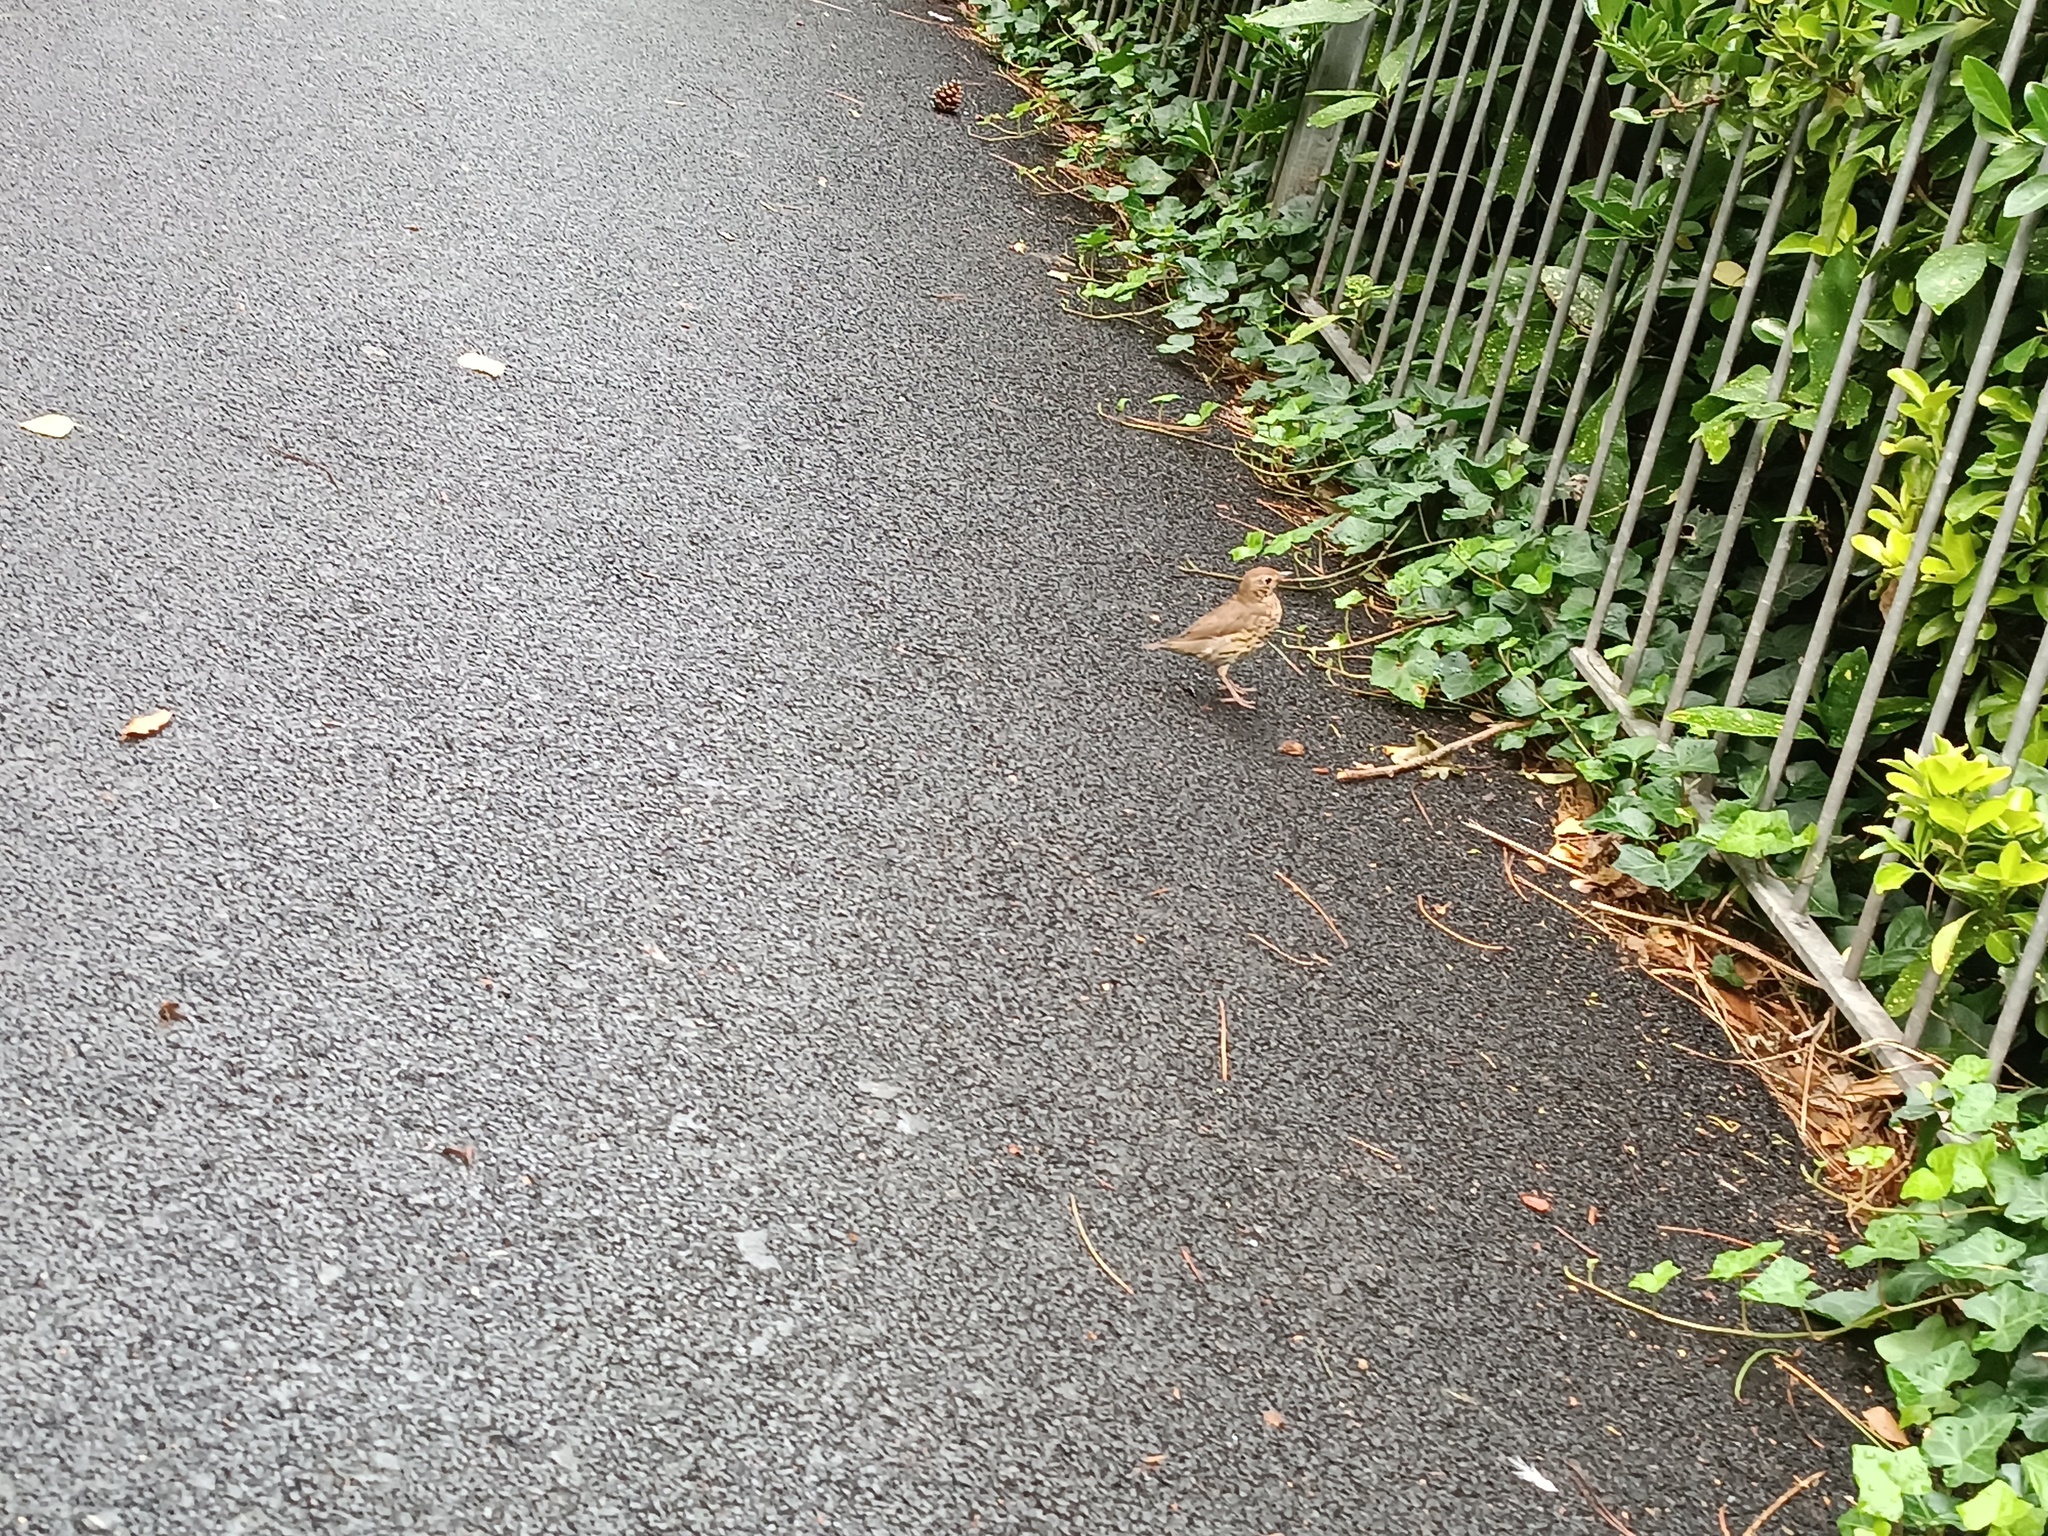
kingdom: Animalia
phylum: Chordata
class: Aves
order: Passeriformes
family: Turdidae
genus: Turdus
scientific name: Turdus philomelos
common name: Song thrush
